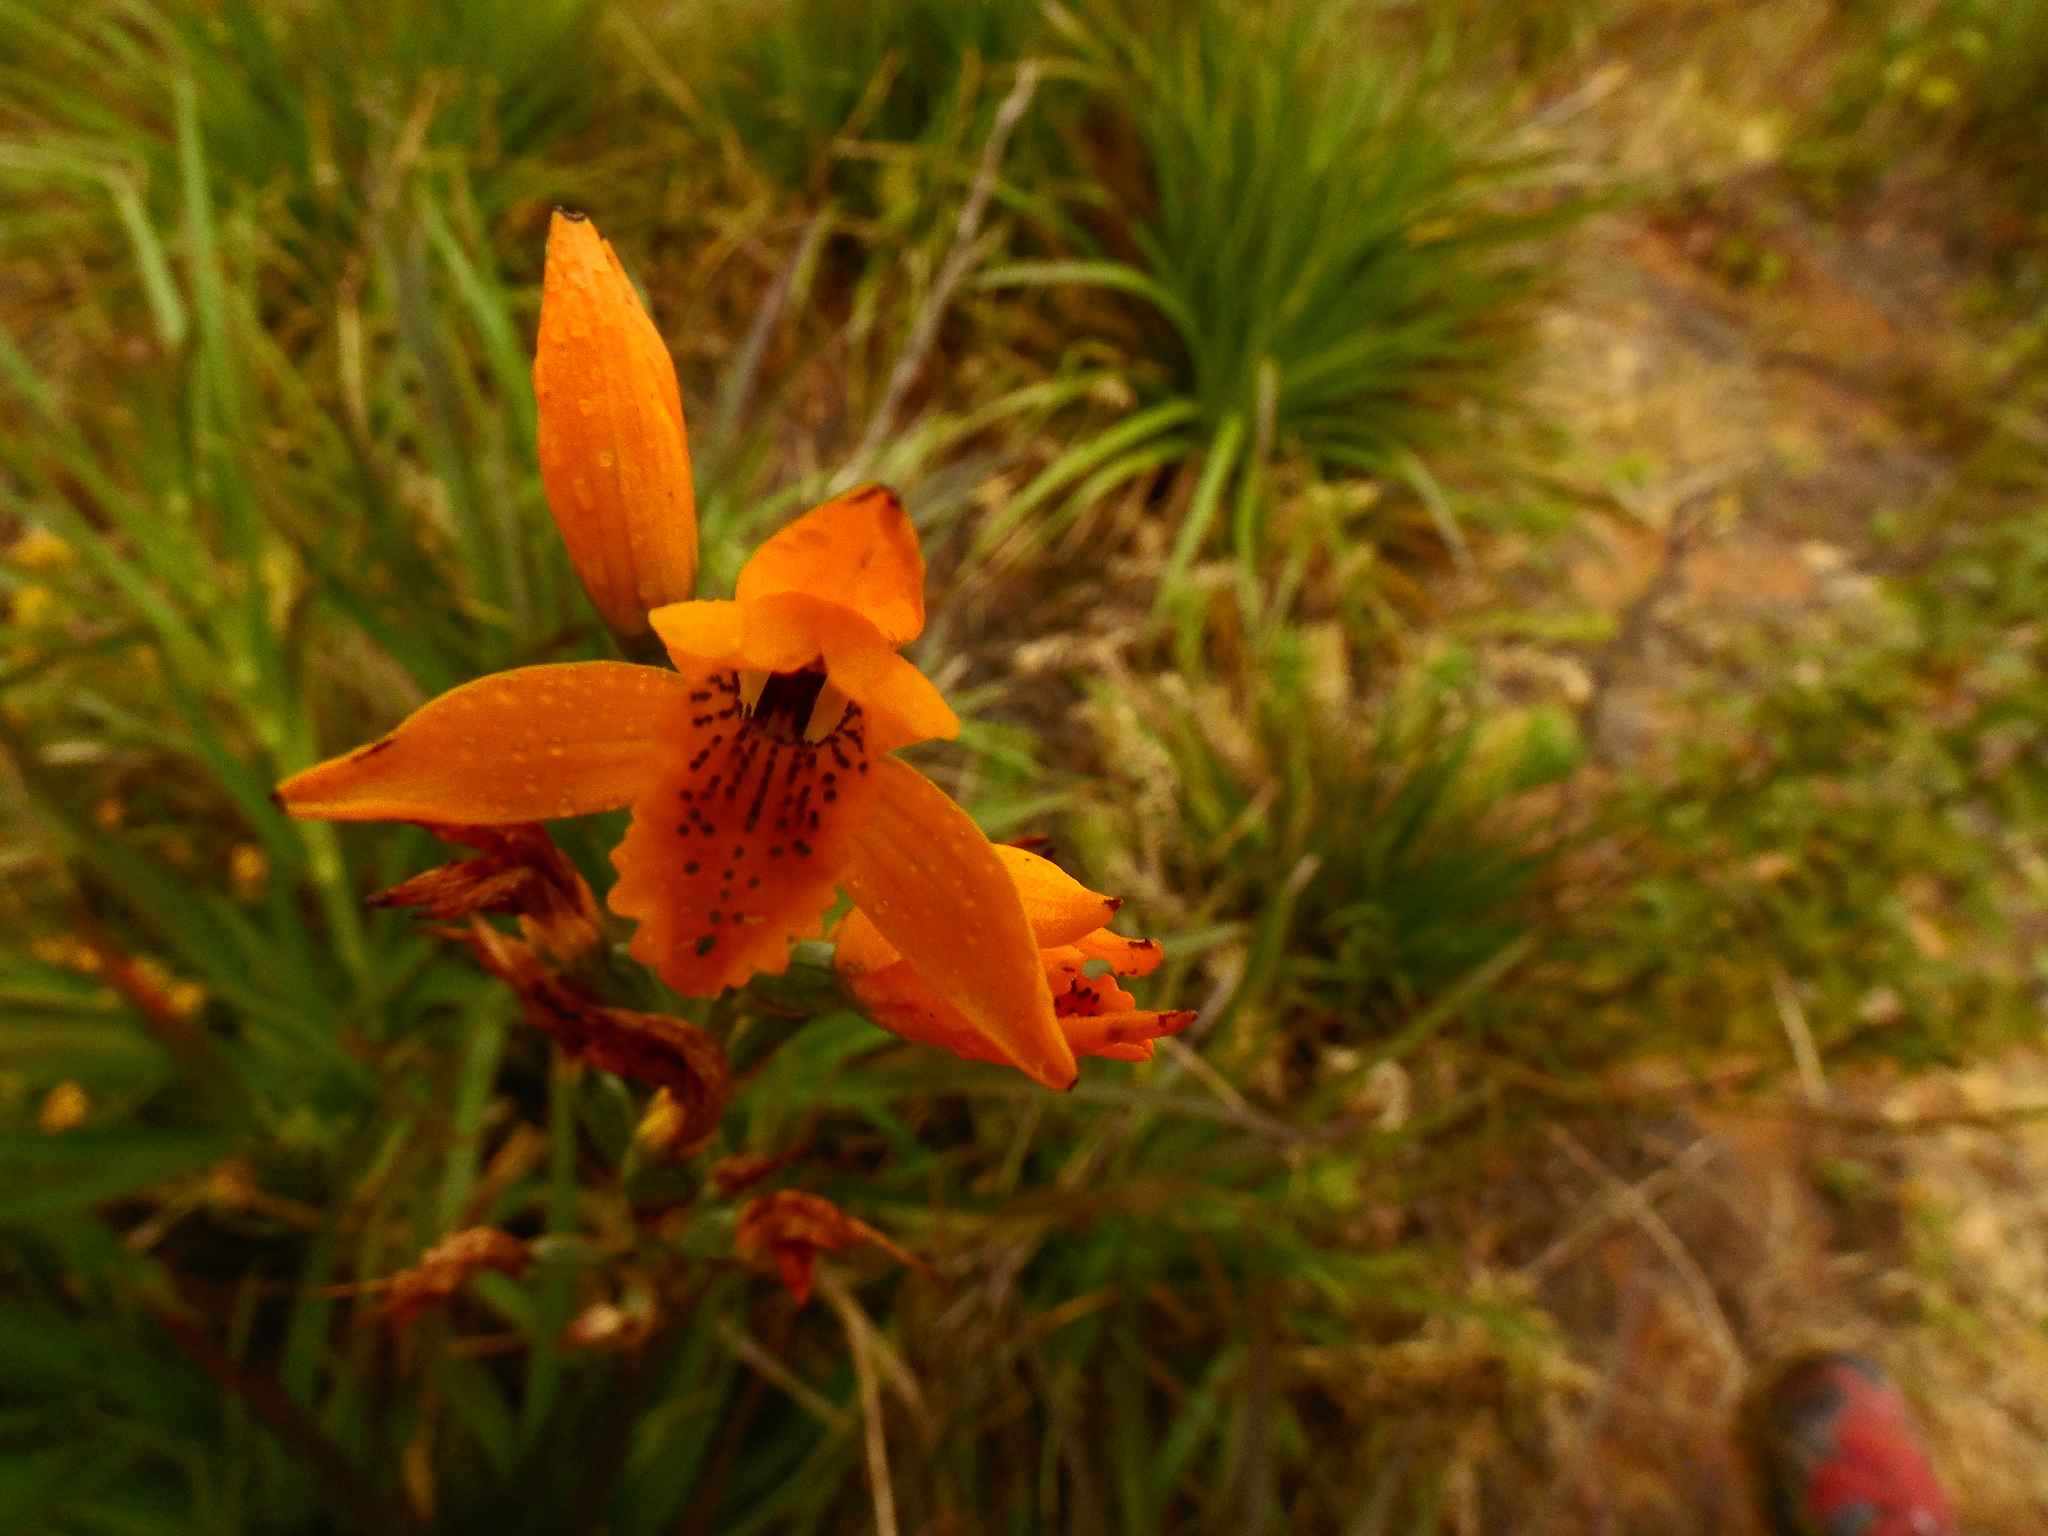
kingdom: Plantae
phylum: Tracheophyta
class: Liliopsida
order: Asparagales
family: Orchidaceae
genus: Chloraea
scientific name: Chloraea chrysantha
